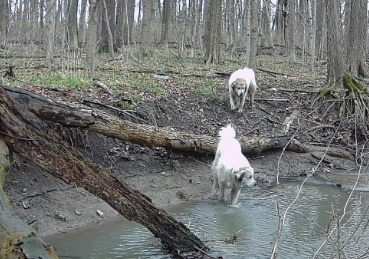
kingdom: Animalia
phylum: Chordata
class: Mammalia
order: Carnivora
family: Canidae
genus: Canis
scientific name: Canis lupus
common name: Gray wolf
